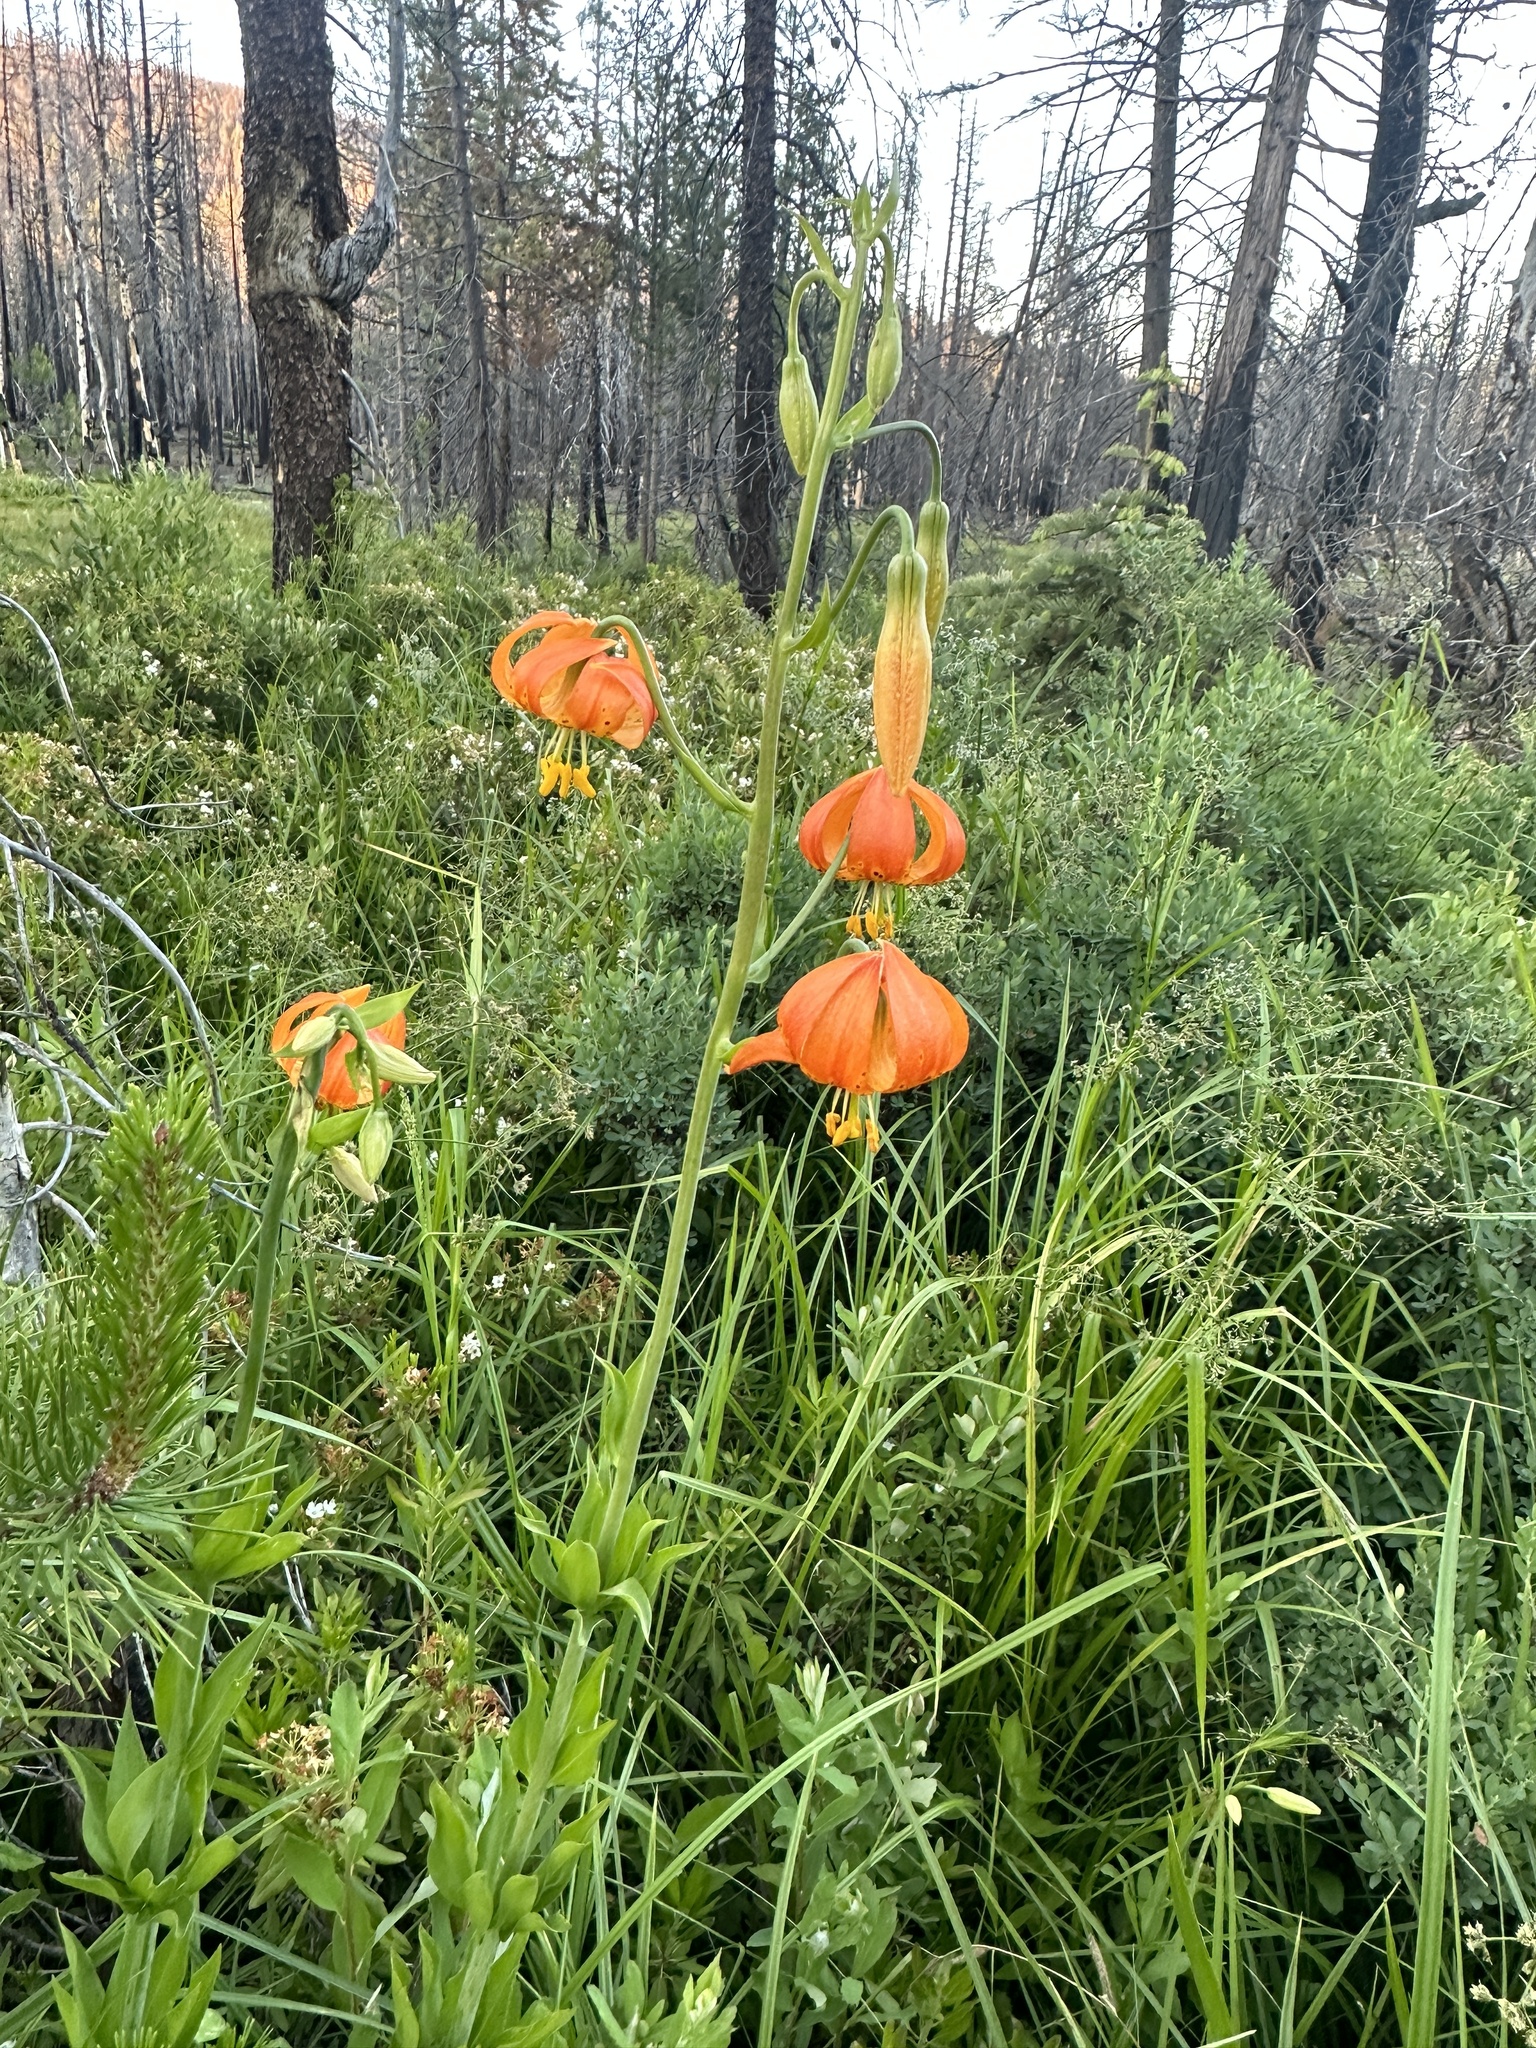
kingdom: Plantae
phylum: Tracheophyta
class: Liliopsida
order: Liliales
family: Liliaceae
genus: Lilium
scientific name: Lilium pardalinum
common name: Panther lily
